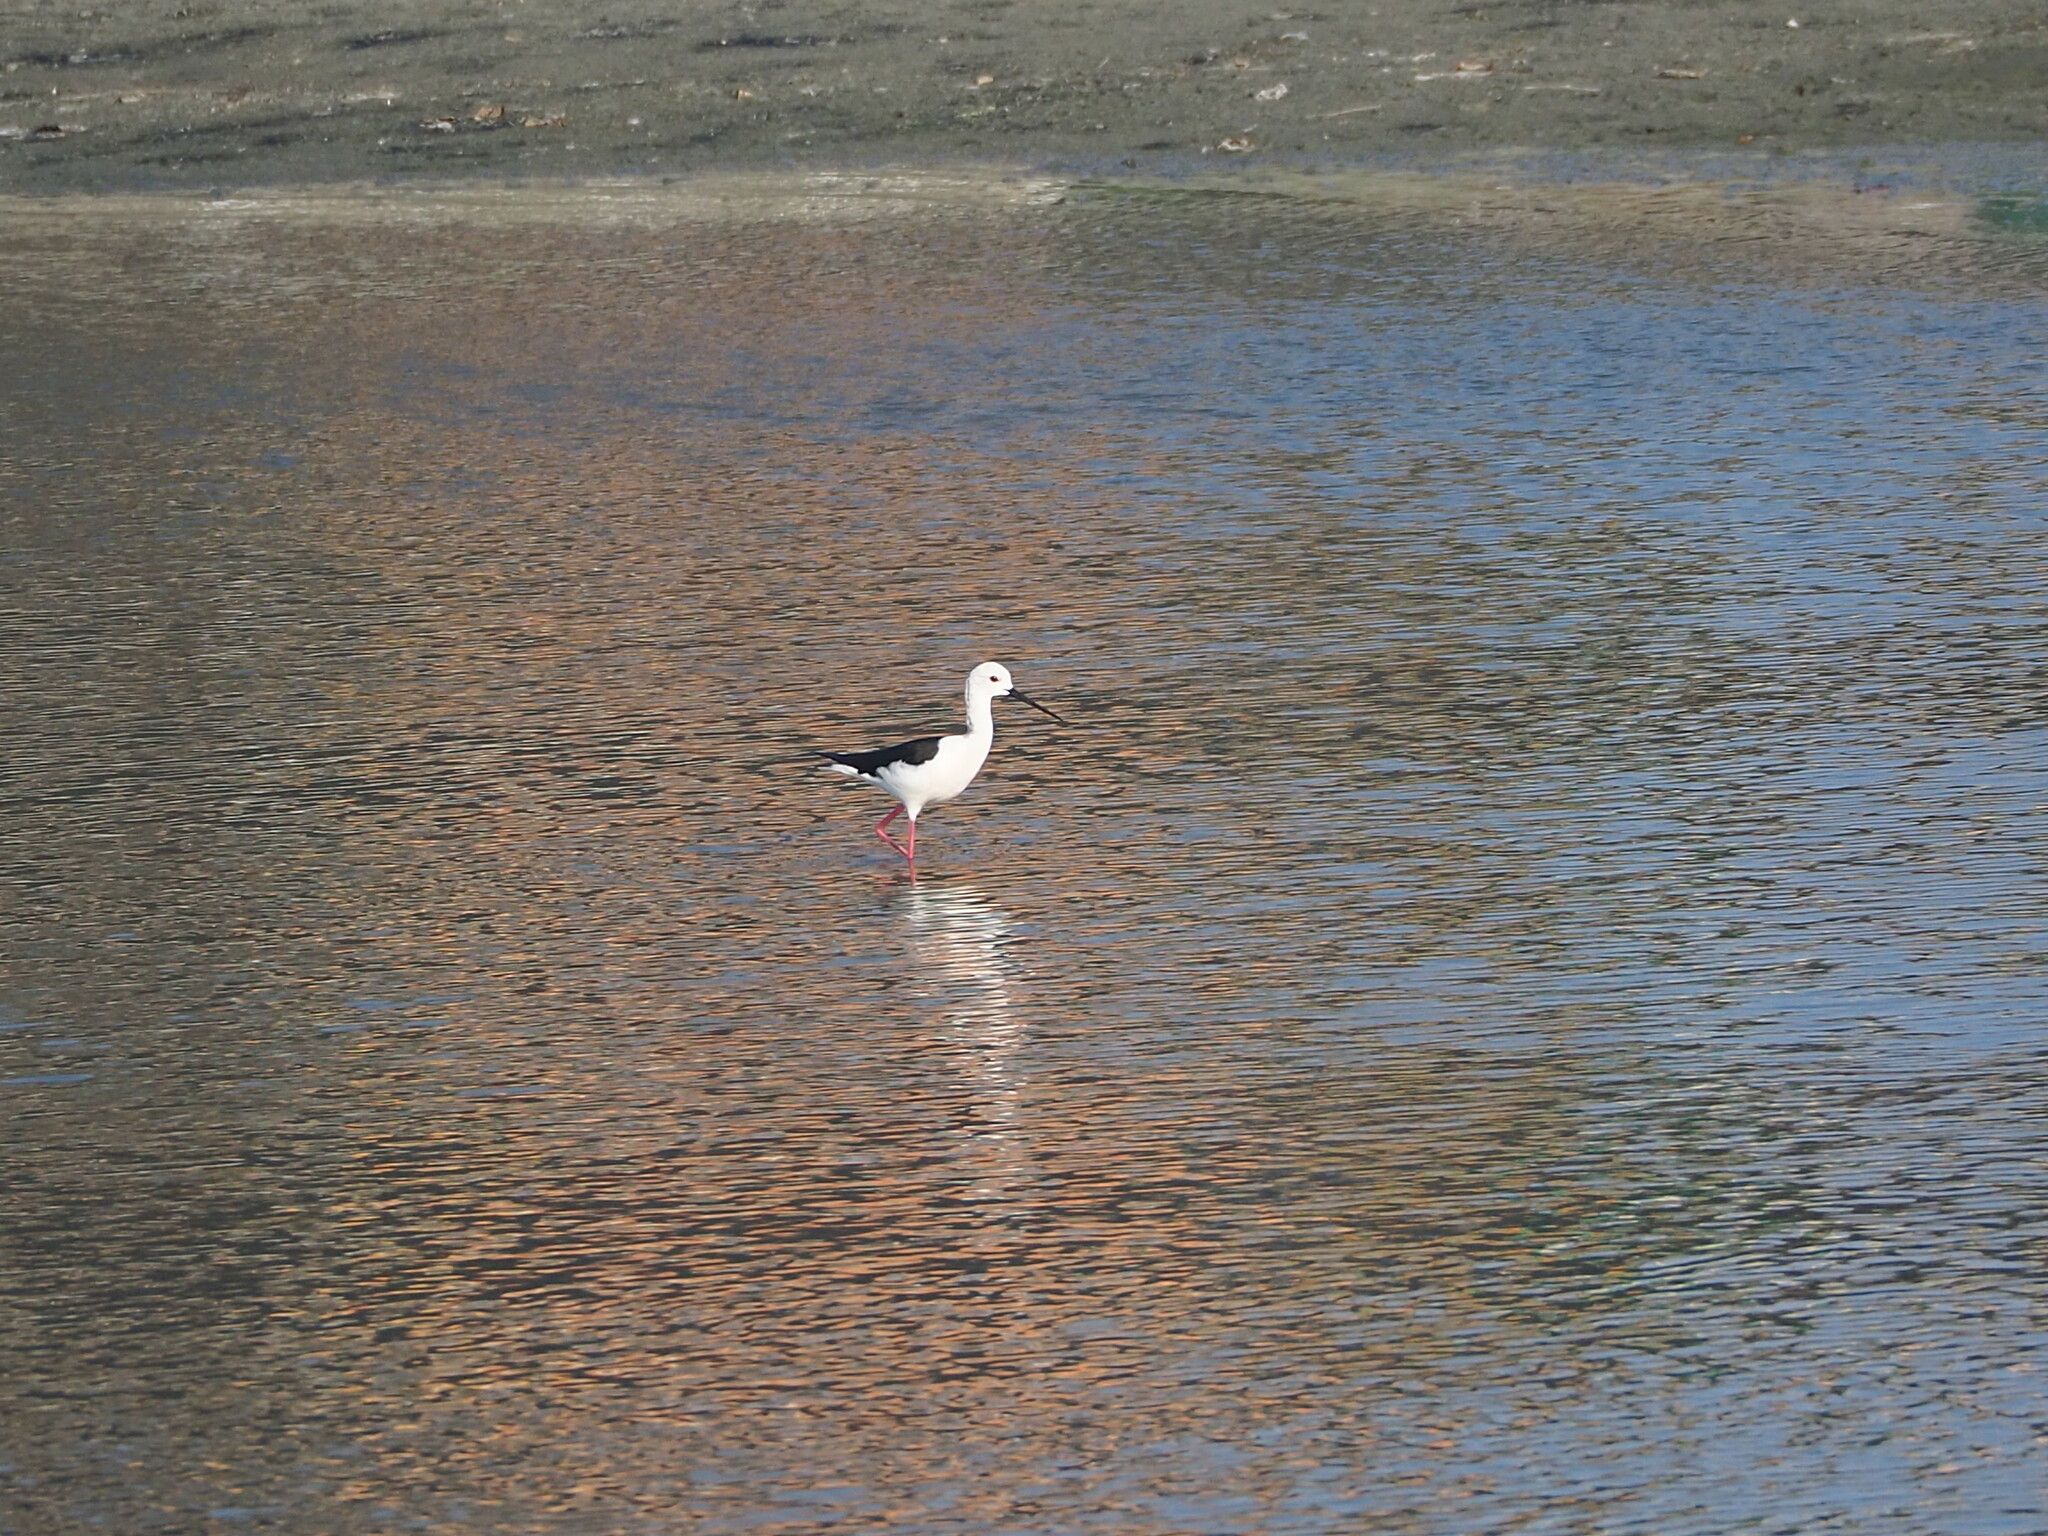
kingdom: Animalia
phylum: Chordata
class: Aves
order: Charadriiformes
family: Recurvirostridae
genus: Himantopus
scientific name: Himantopus himantopus
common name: Black-winged stilt
